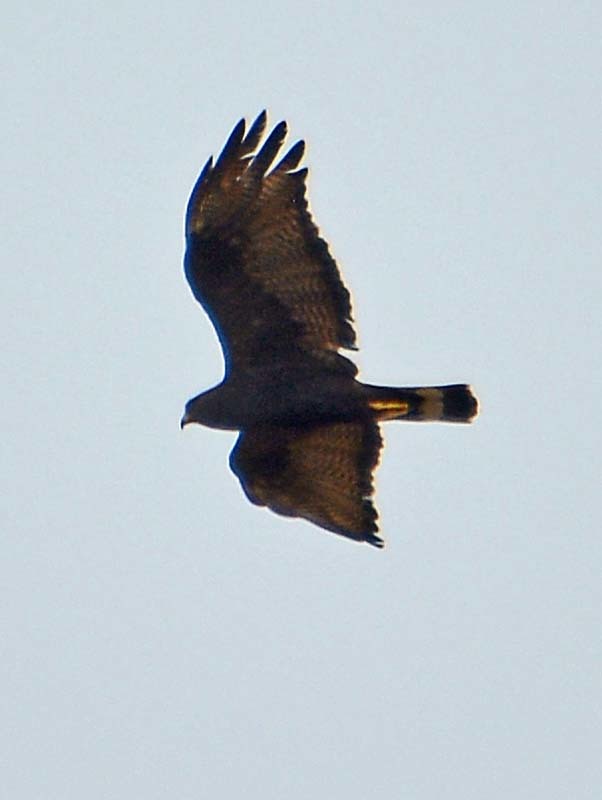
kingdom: Animalia
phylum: Chordata
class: Aves
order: Accipitriformes
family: Accipitridae
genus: Buteo
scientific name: Buteo albonotatus
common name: Zone-tailed hawk
